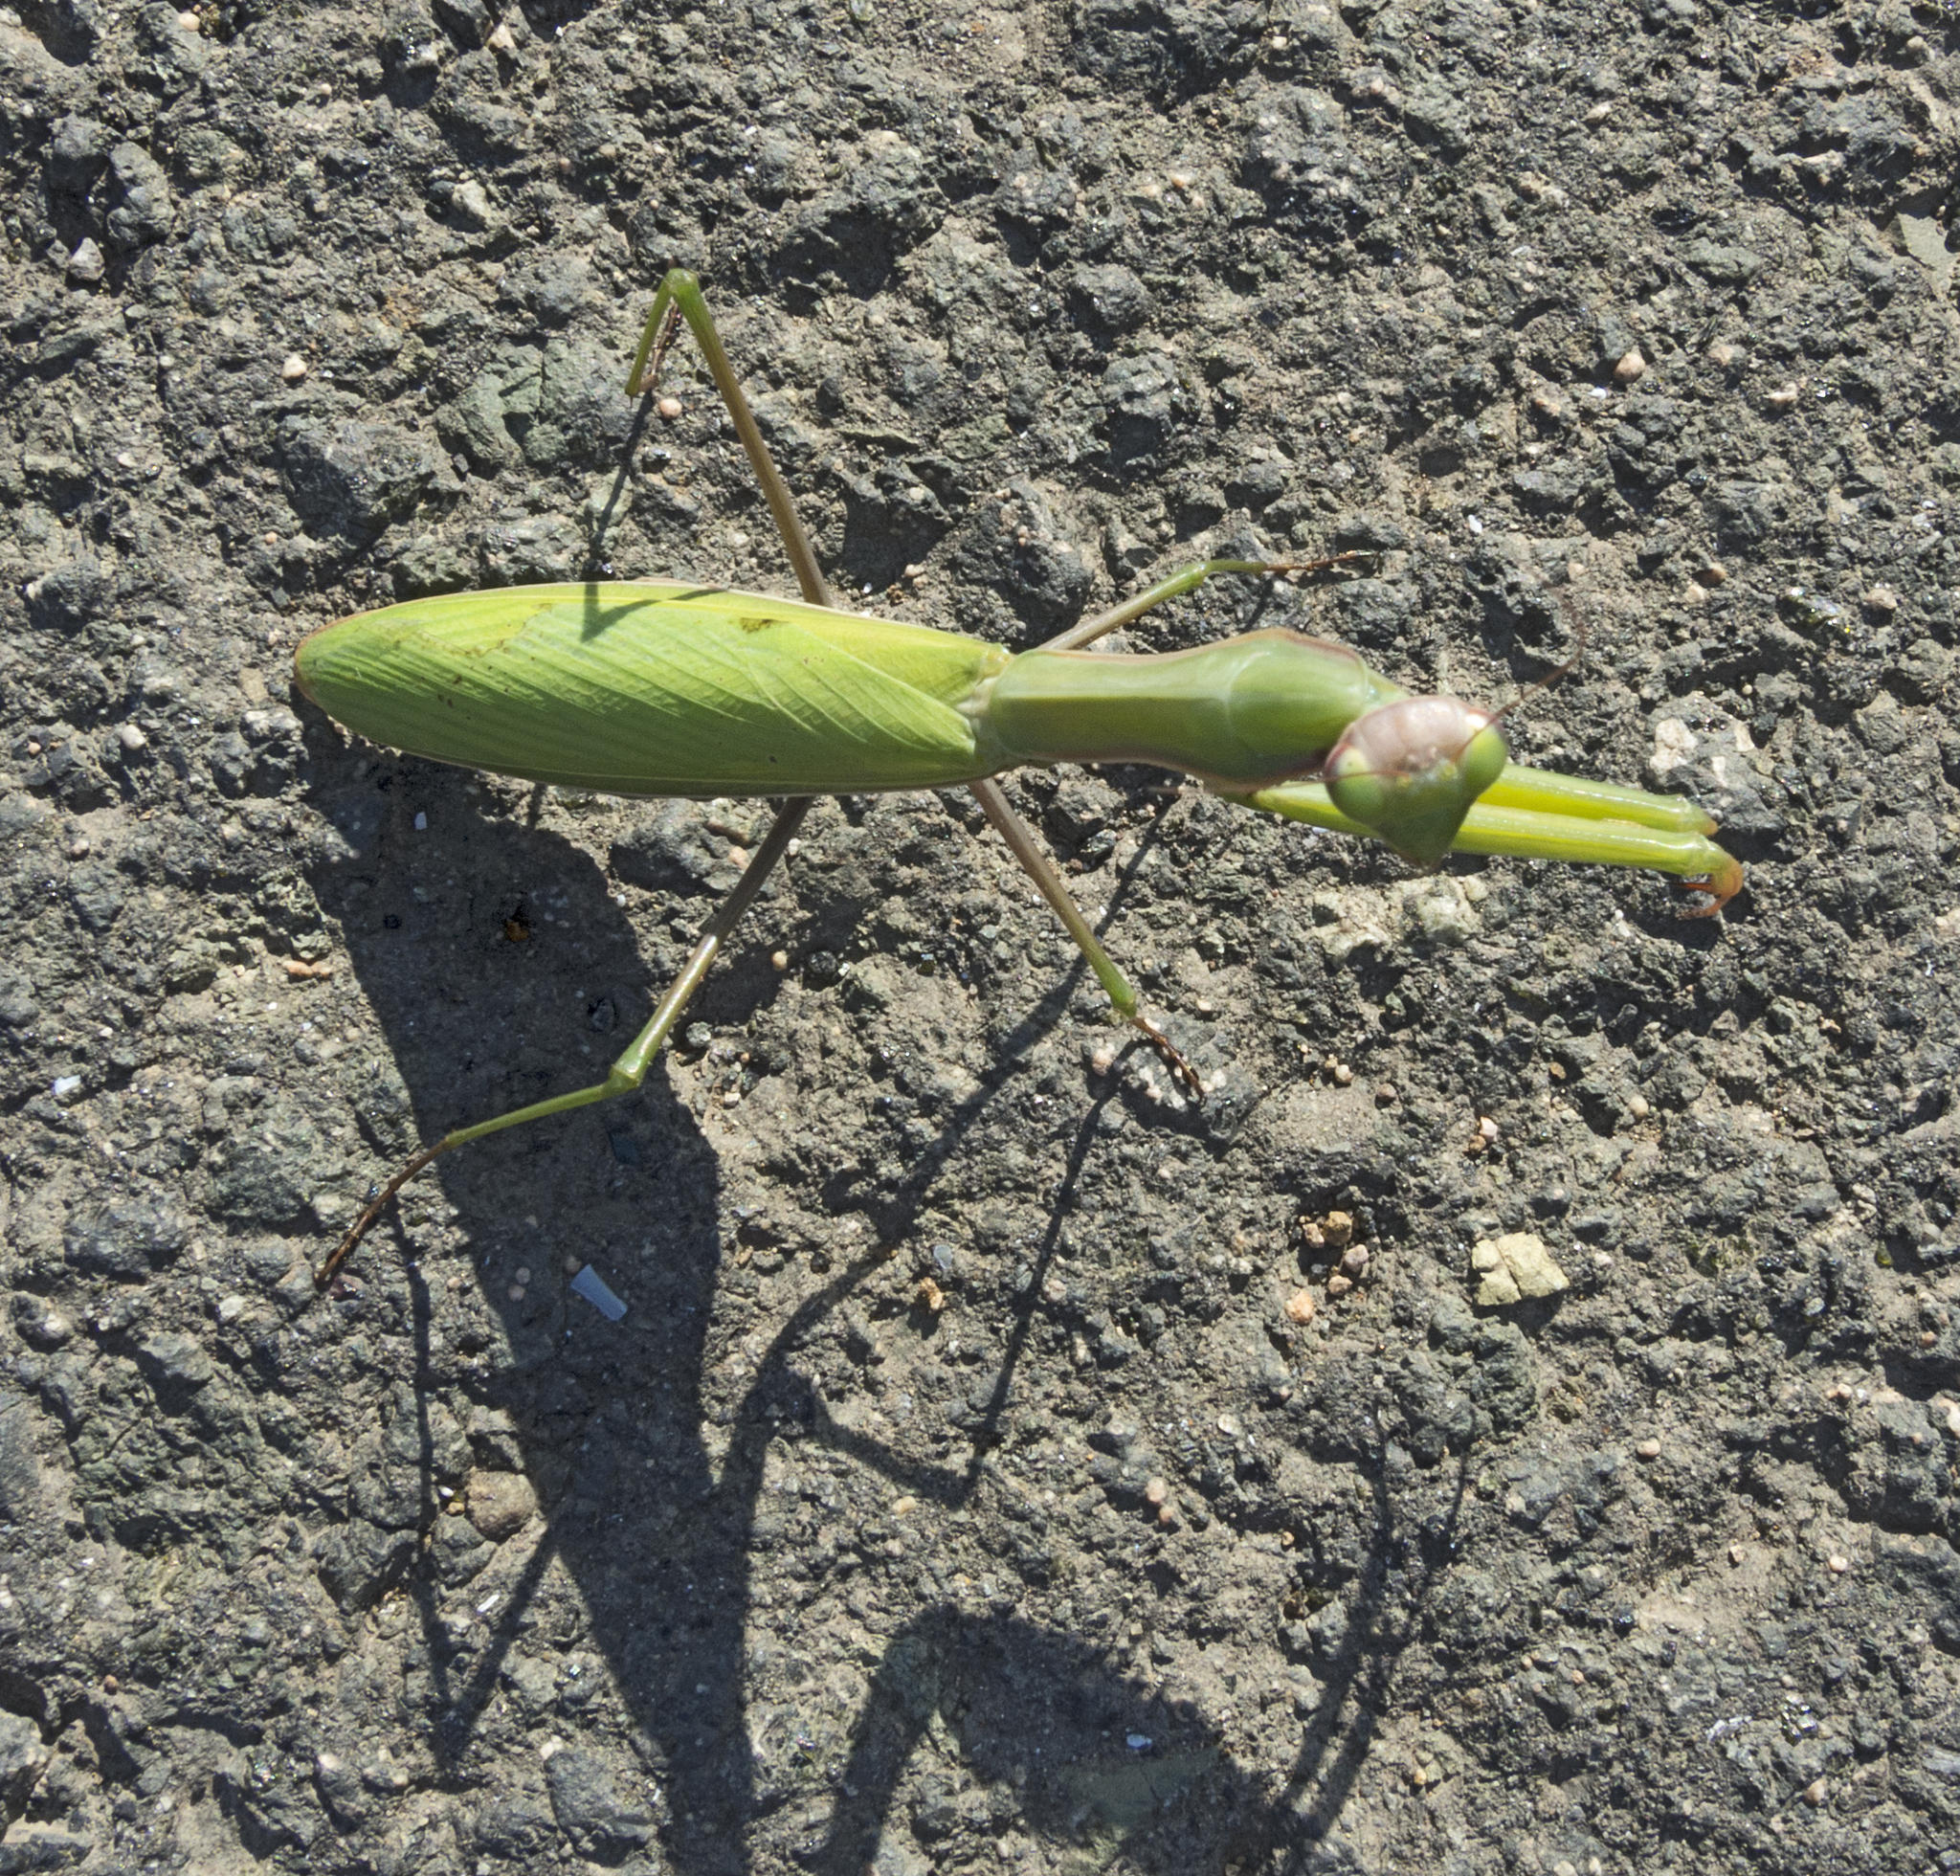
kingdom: Animalia
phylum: Arthropoda
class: Insecta
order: Mantodea
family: Mantidae
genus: Mantis
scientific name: Mantis religiosa
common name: Praying mantis
